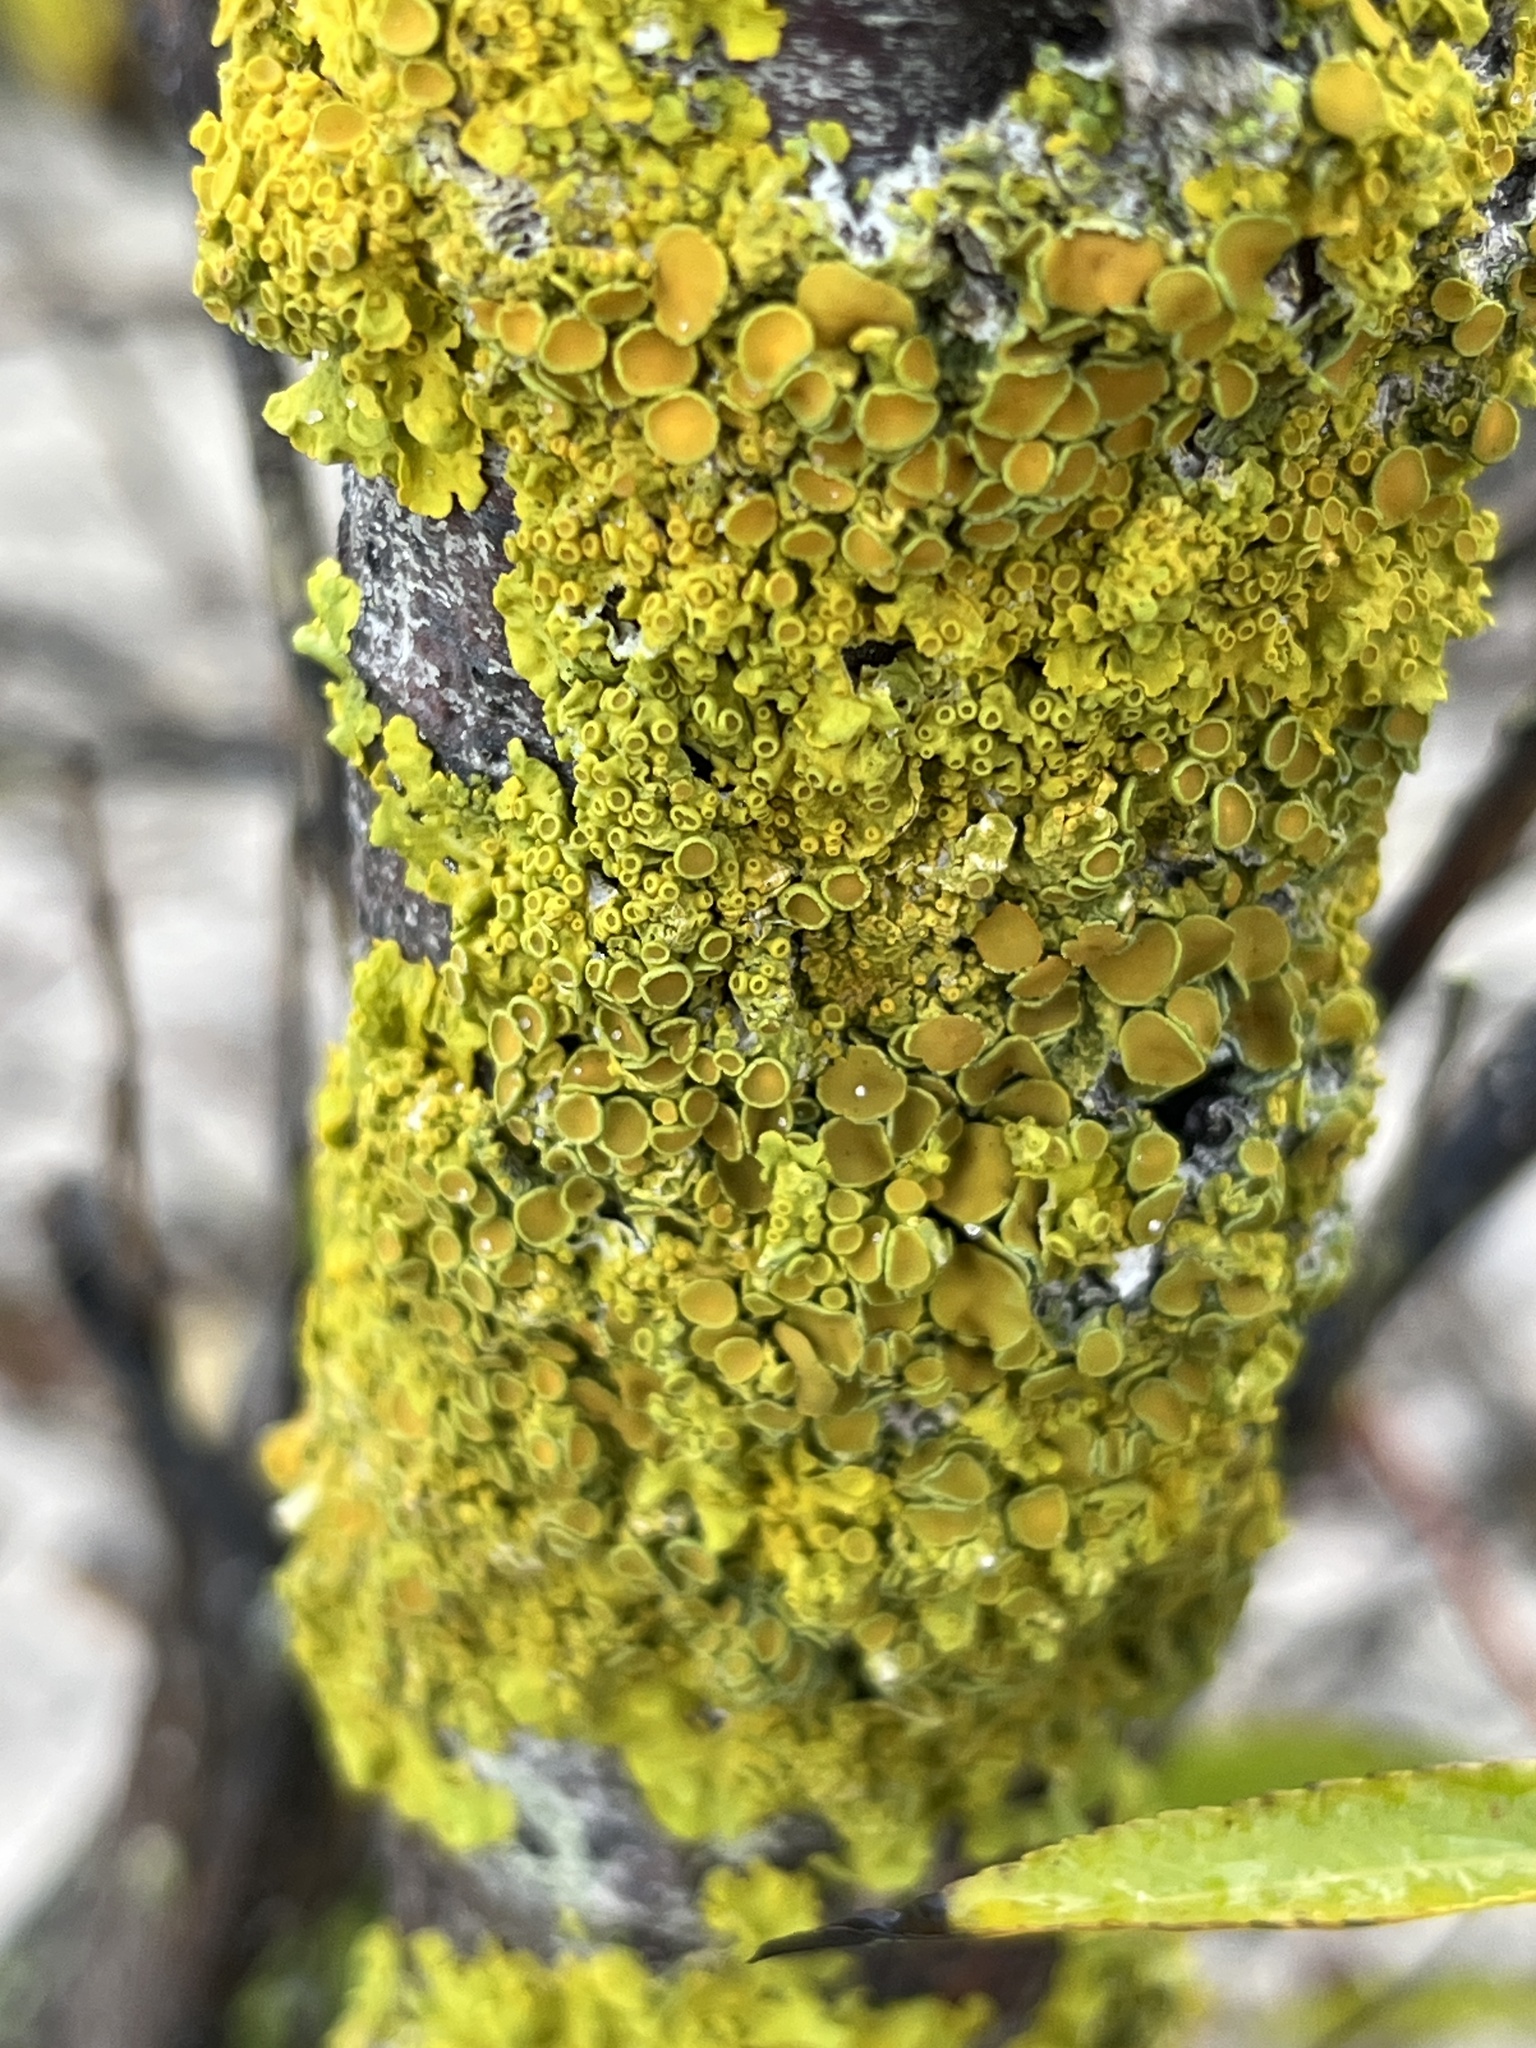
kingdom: Fungi
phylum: Ascomycota
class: Lecanoromycetes
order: Teloschistales
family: Teloschistaceae
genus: Xanthoria
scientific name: Xanthoria parietina
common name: Common orange lichen
